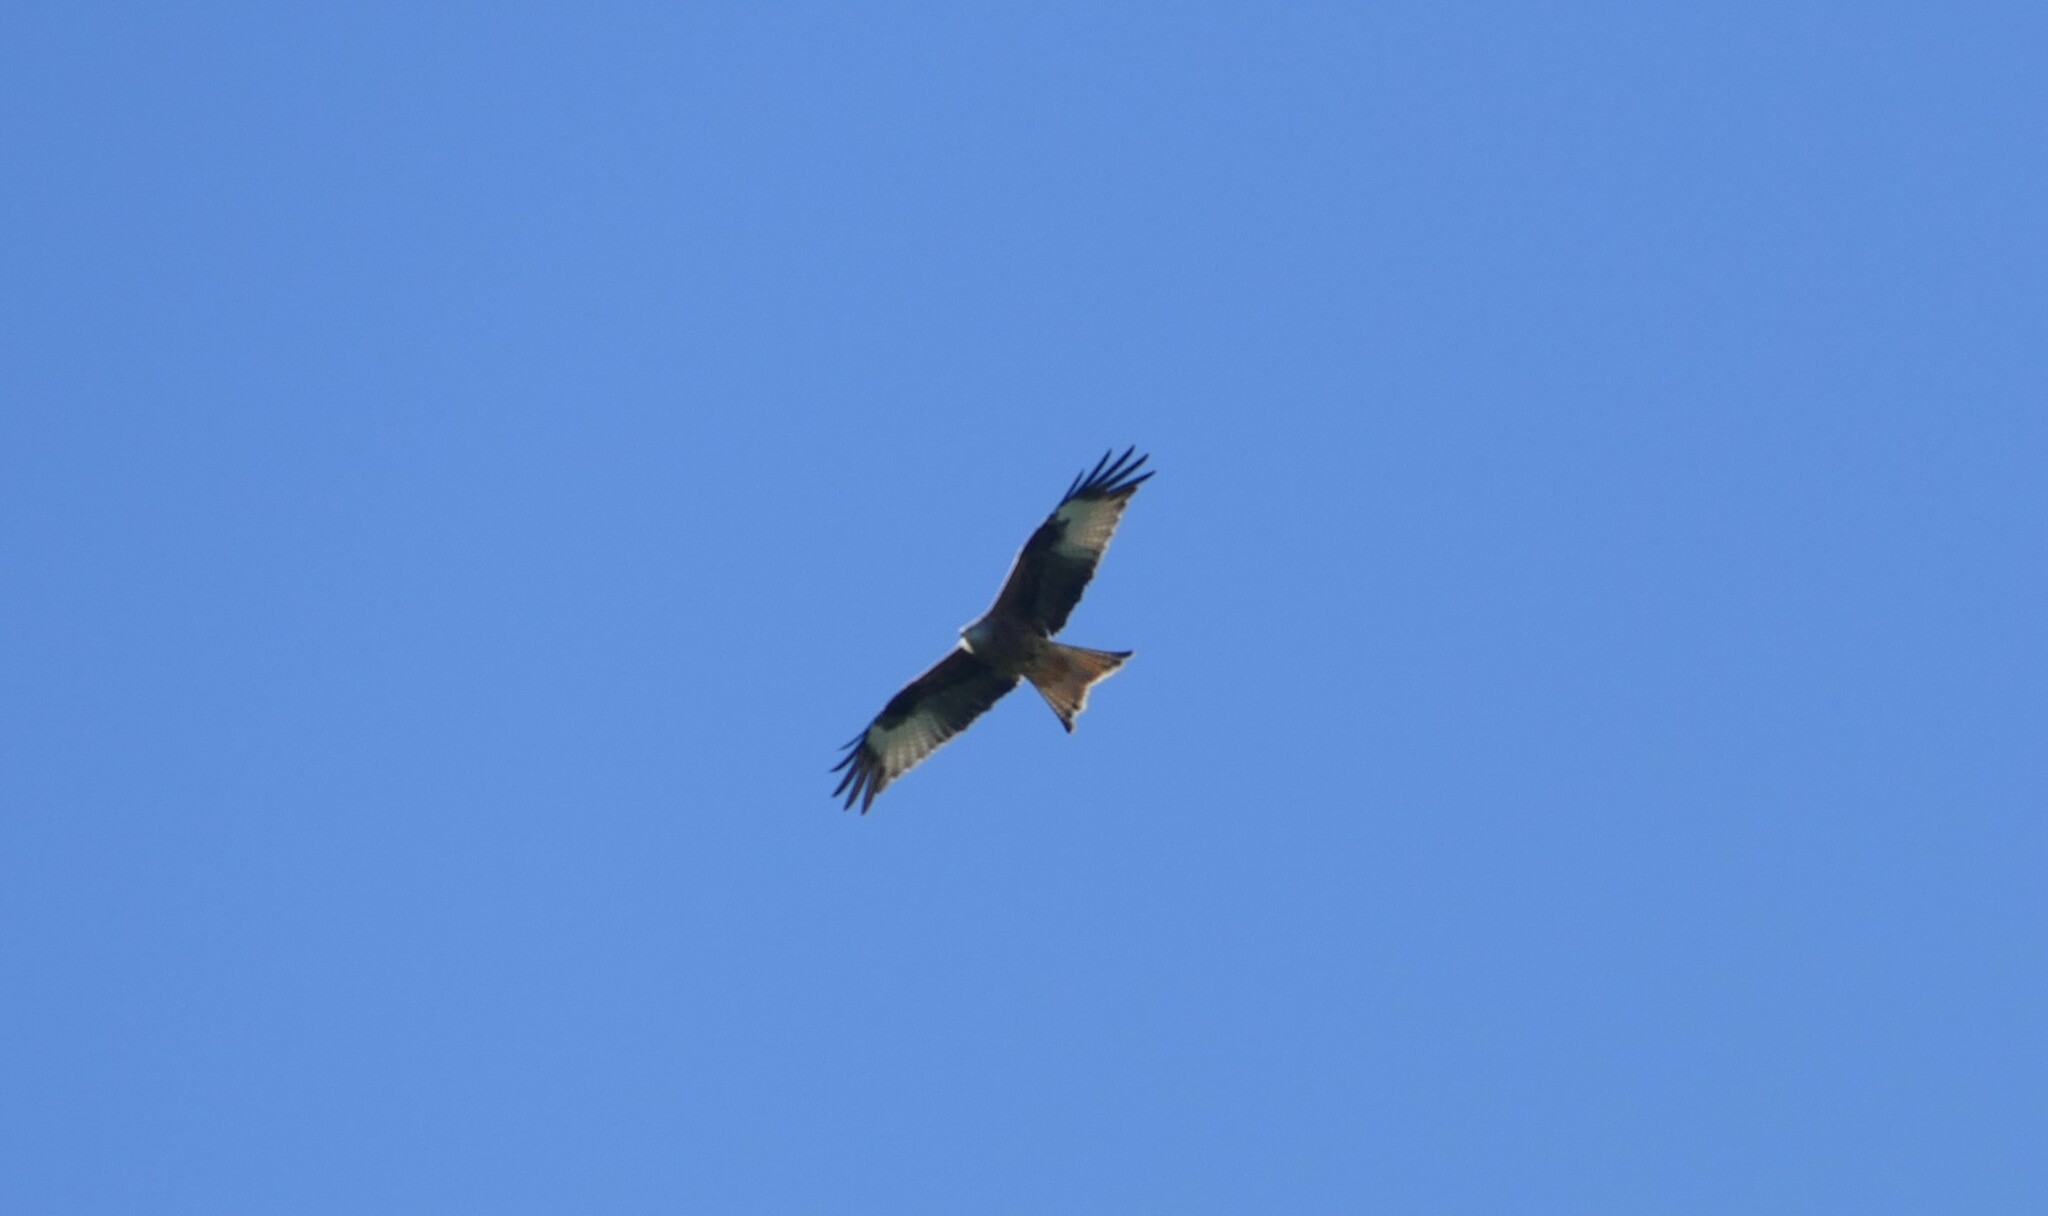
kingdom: Animalia
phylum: Chordata
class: Aves
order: Accipitriformes
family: Accipitridae
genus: Milvus
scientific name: Milvus milvus
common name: Red kite
